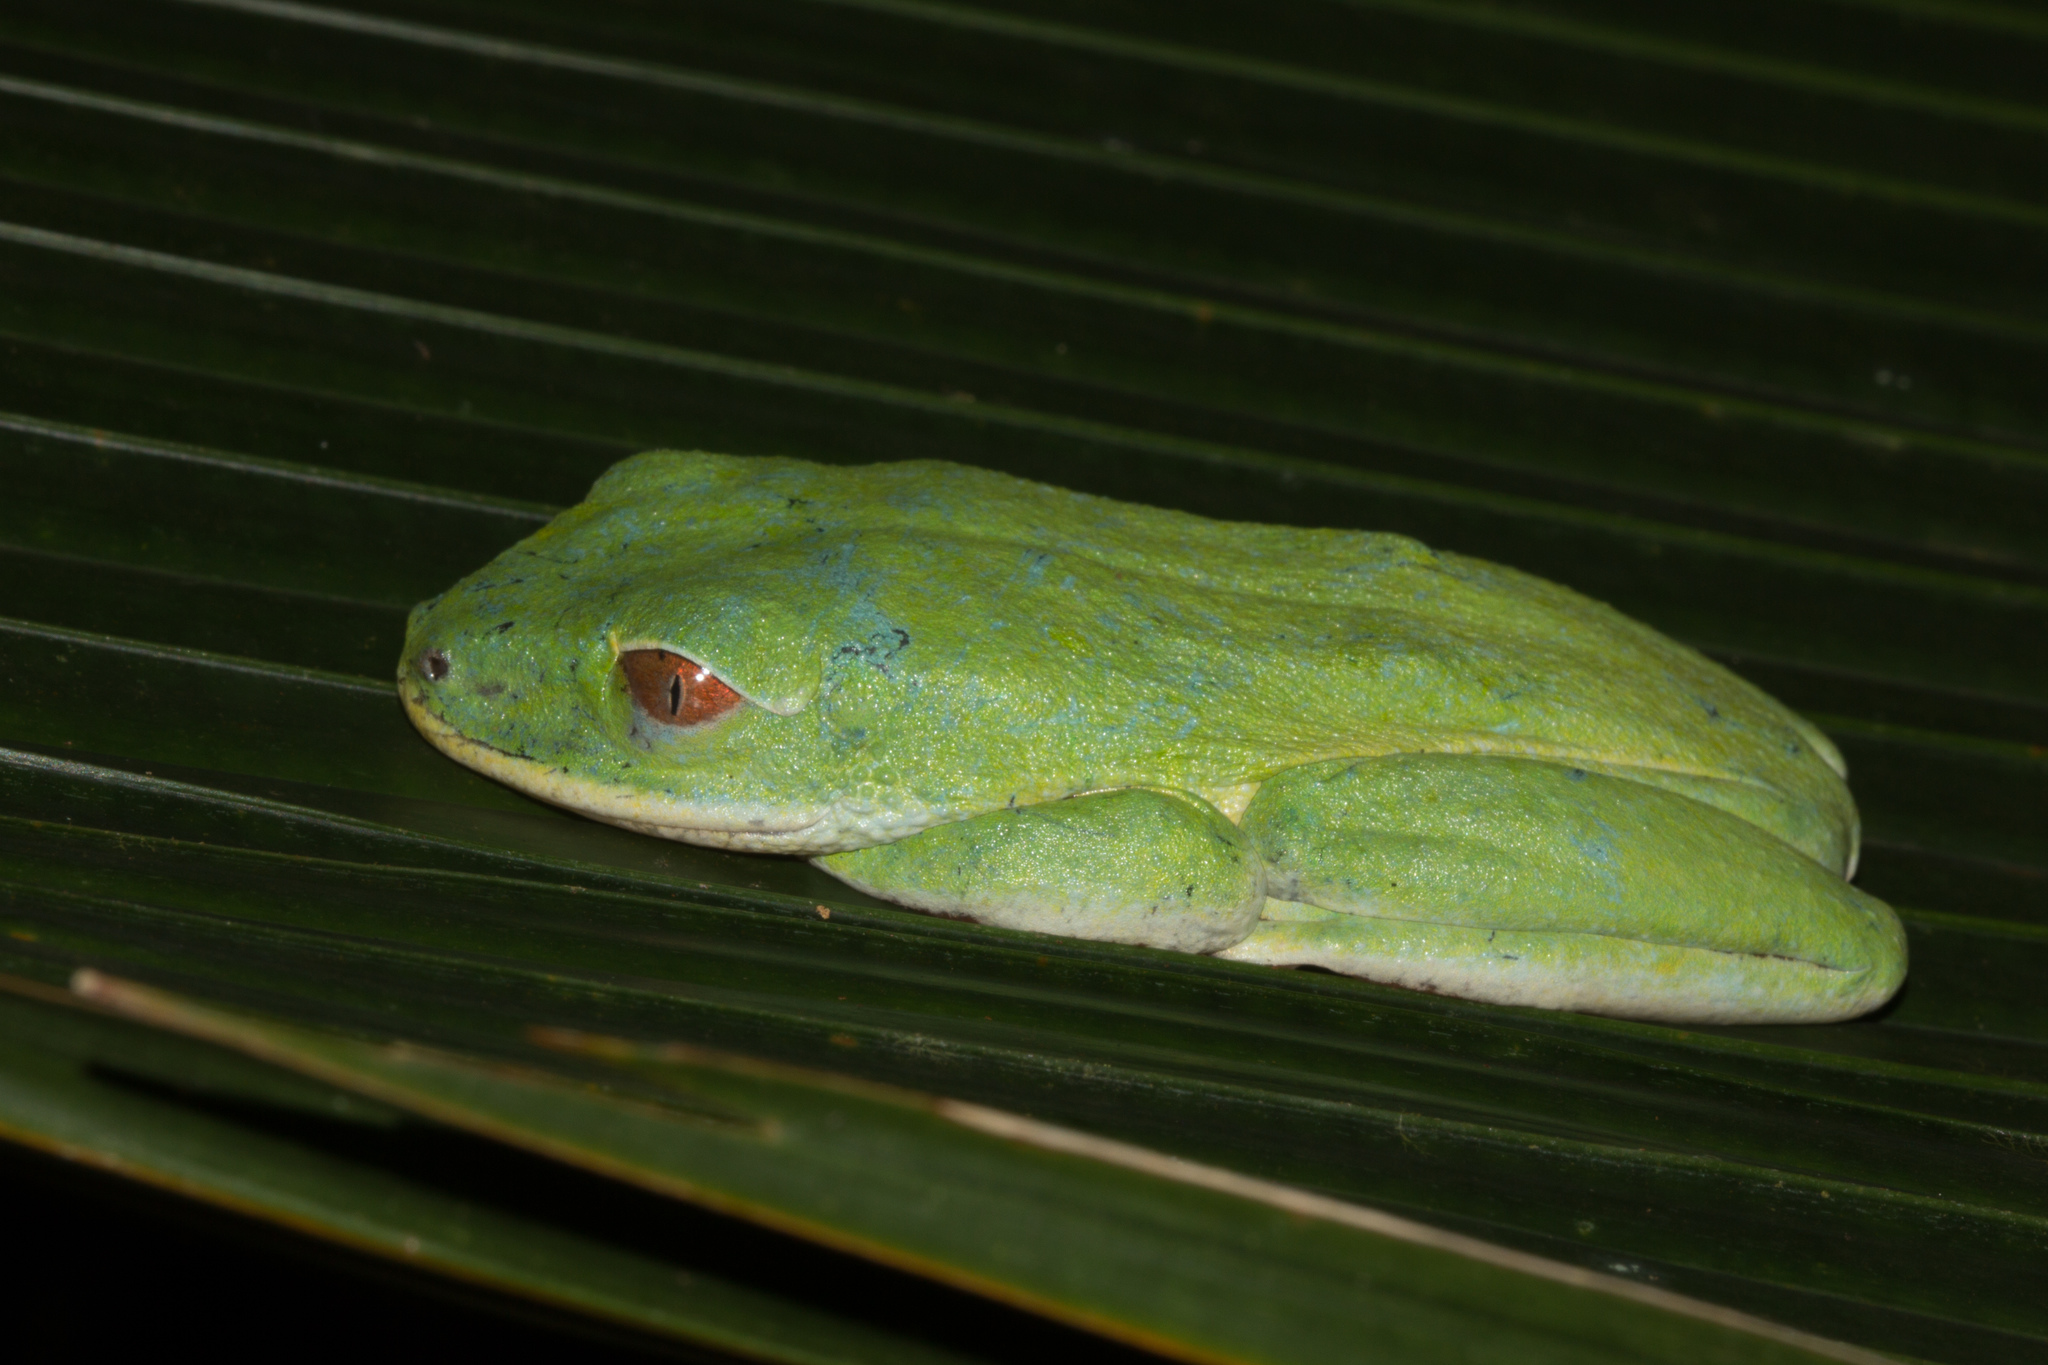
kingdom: Animalia
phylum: Chordata
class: Amphibia
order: Anura
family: Hyperoliidae
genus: Tachycnemis
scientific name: Tachycnemis seychellensis
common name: Seychelles treefrog
